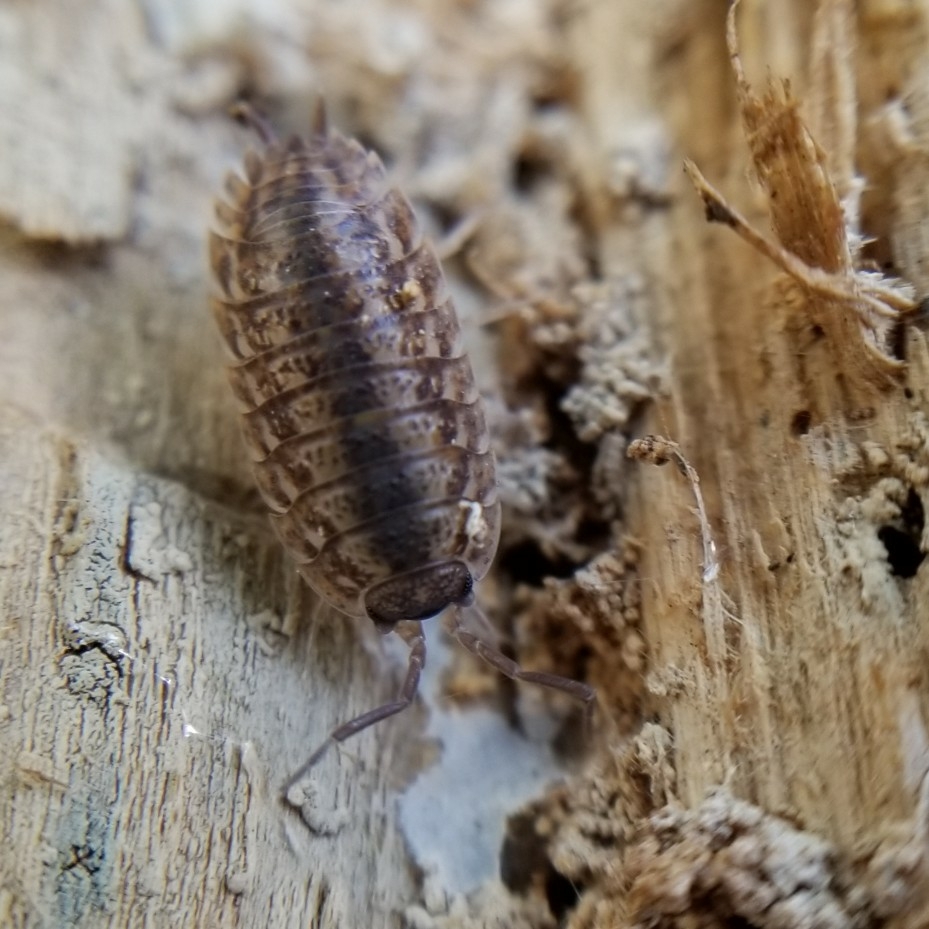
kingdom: Animalia
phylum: Arthropoda
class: Malacostraca
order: Isopoda
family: Trachelipodidae
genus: Trachelipus
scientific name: Trachelipus rathkii
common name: Isopod
